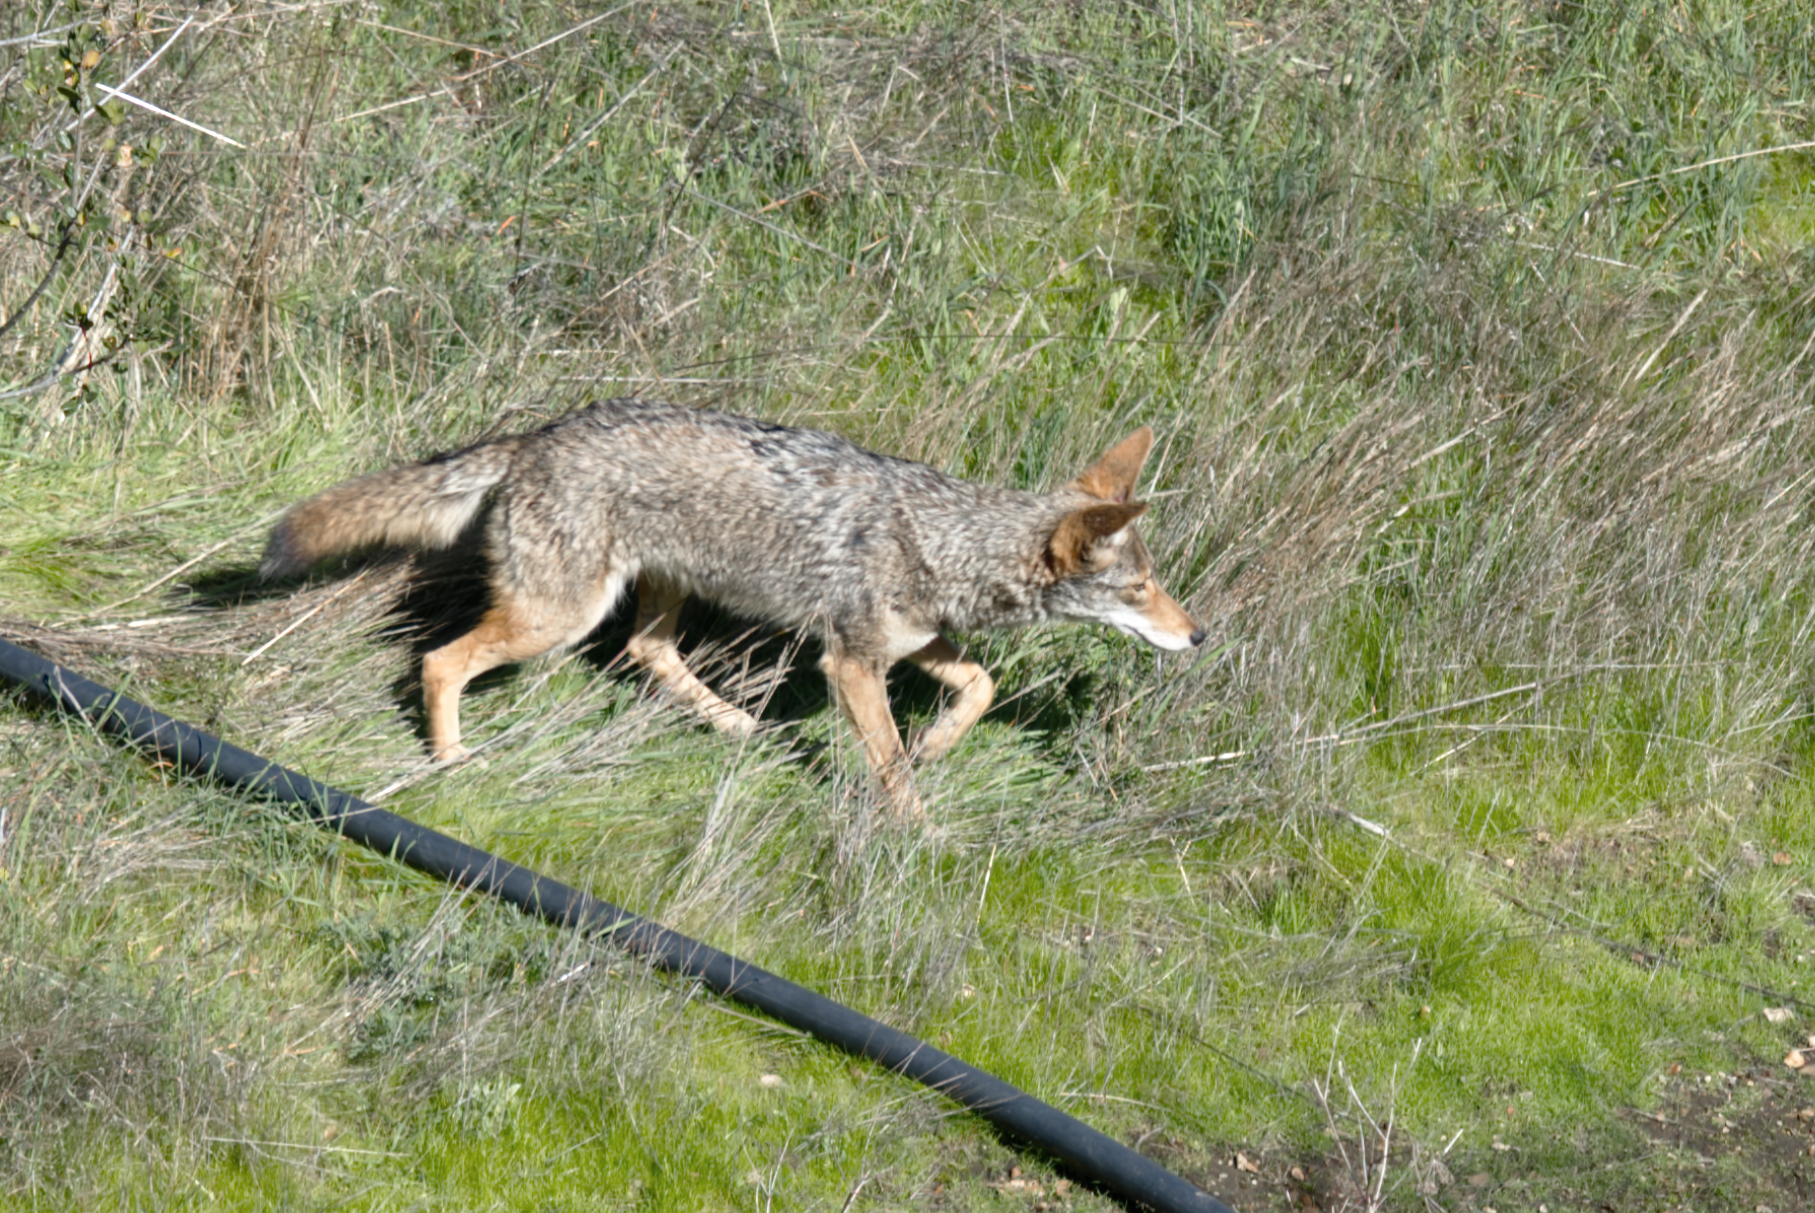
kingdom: Animalia
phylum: Chordata
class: Mammalia
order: Carnivora
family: Canidae
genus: Canis
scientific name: Canis latrans
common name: Coyote
